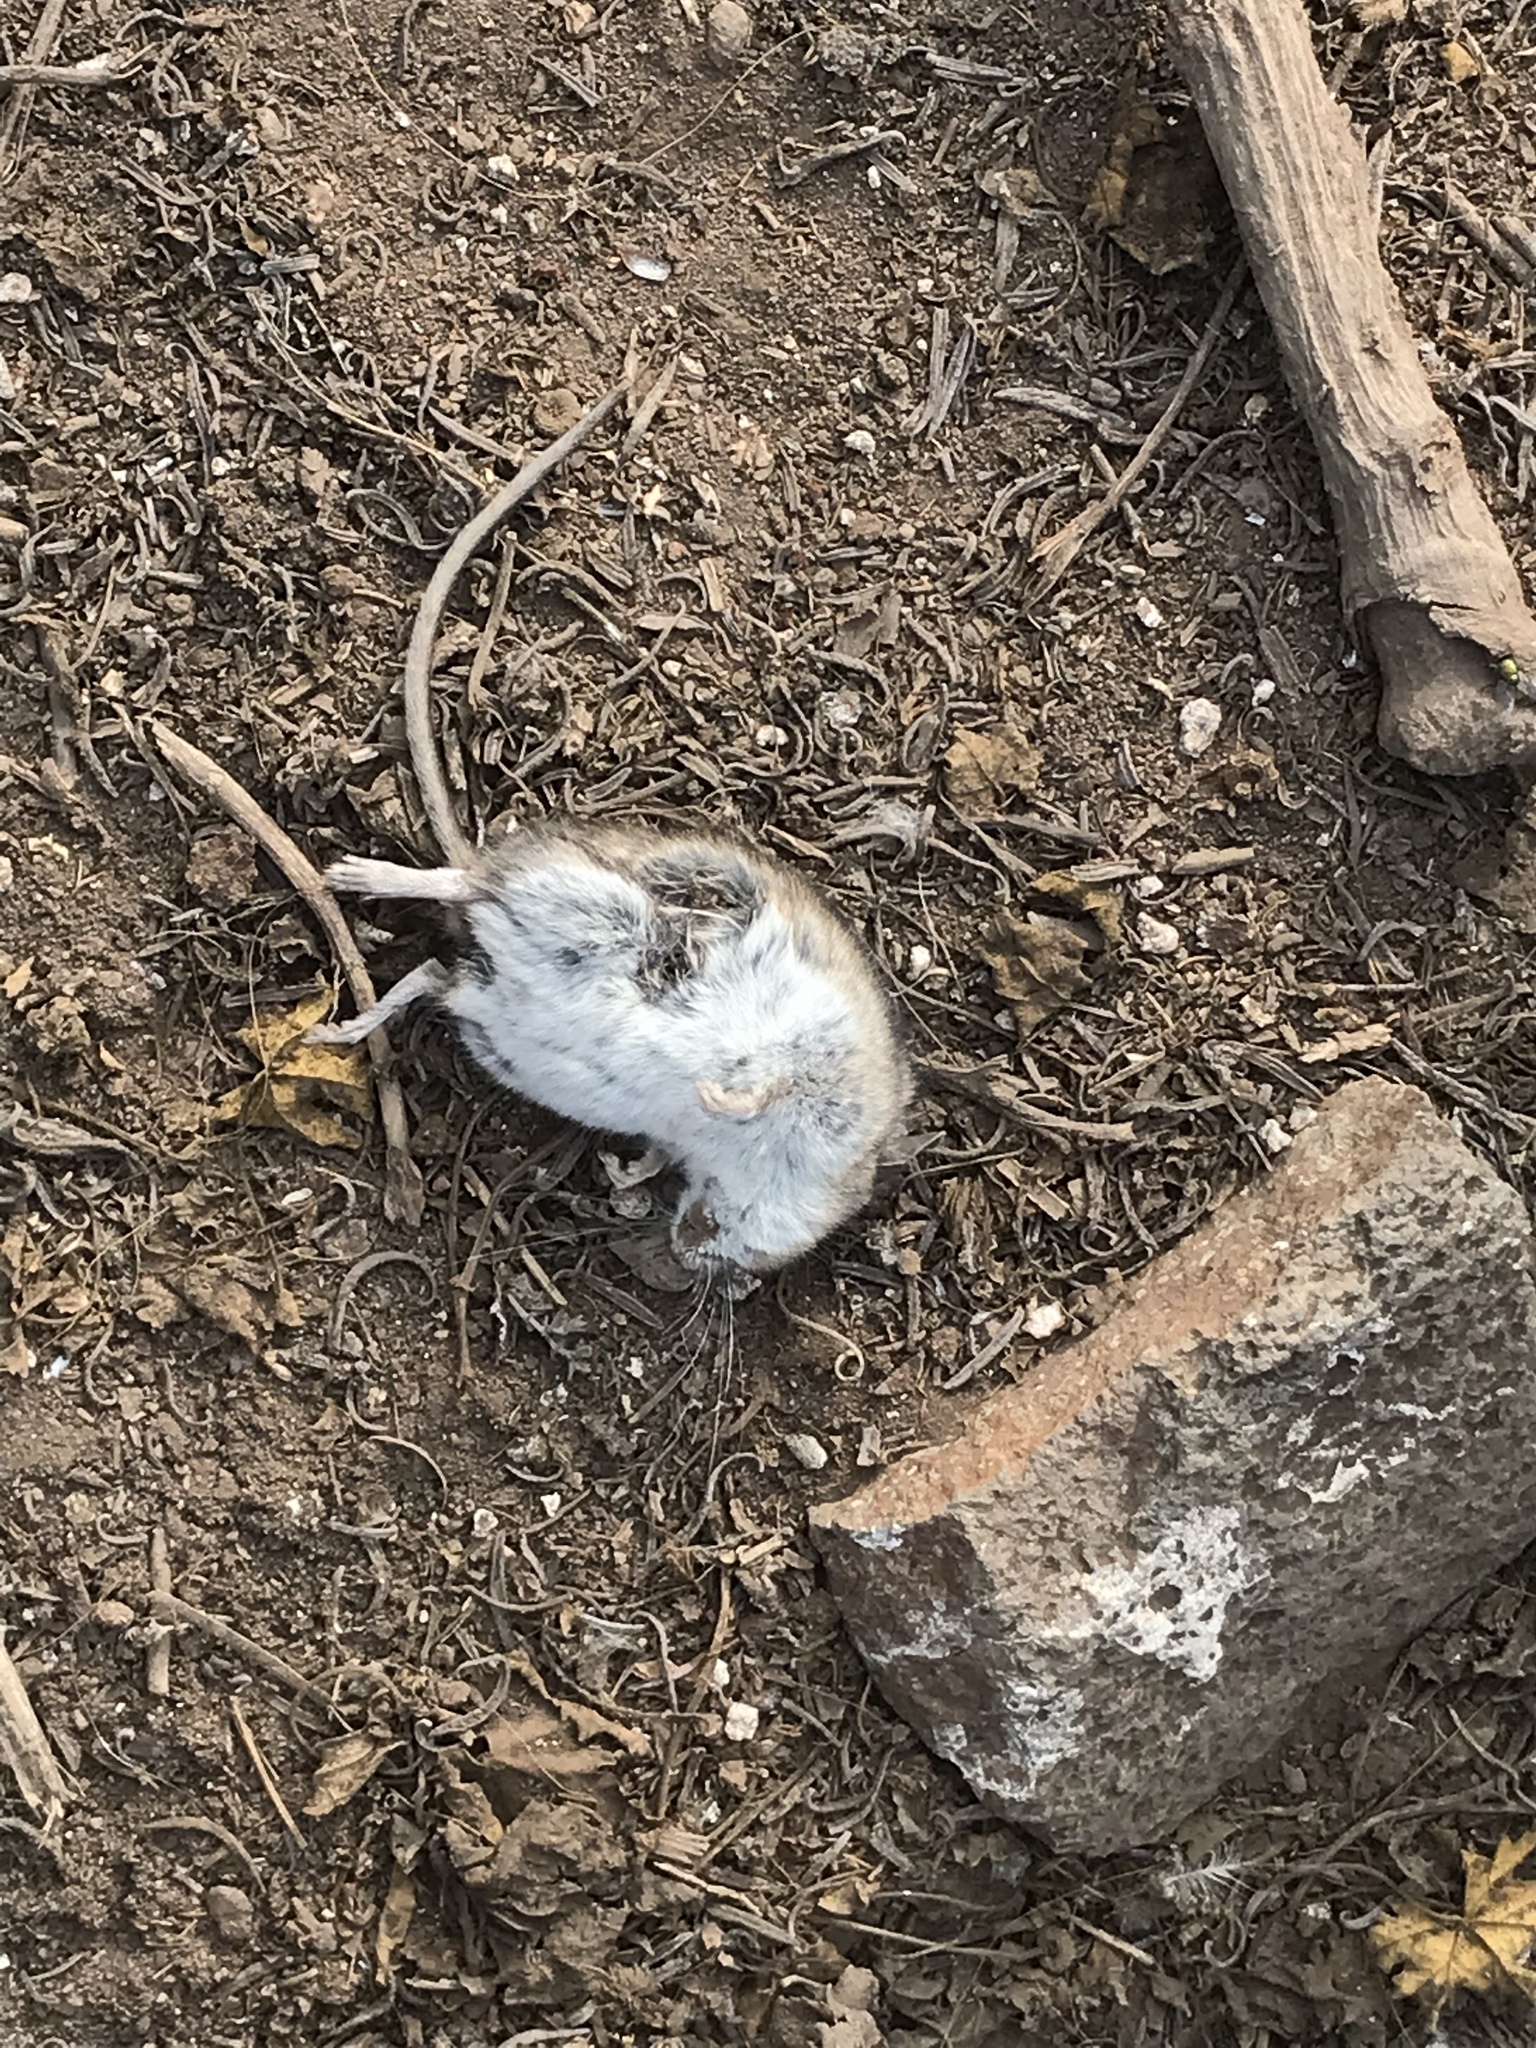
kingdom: Animalia
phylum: Chordata
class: Mammalia
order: Rodentia
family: Cricetidae
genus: Peromyscus
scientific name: Peromyscus maniculatus
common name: Deer mouse
